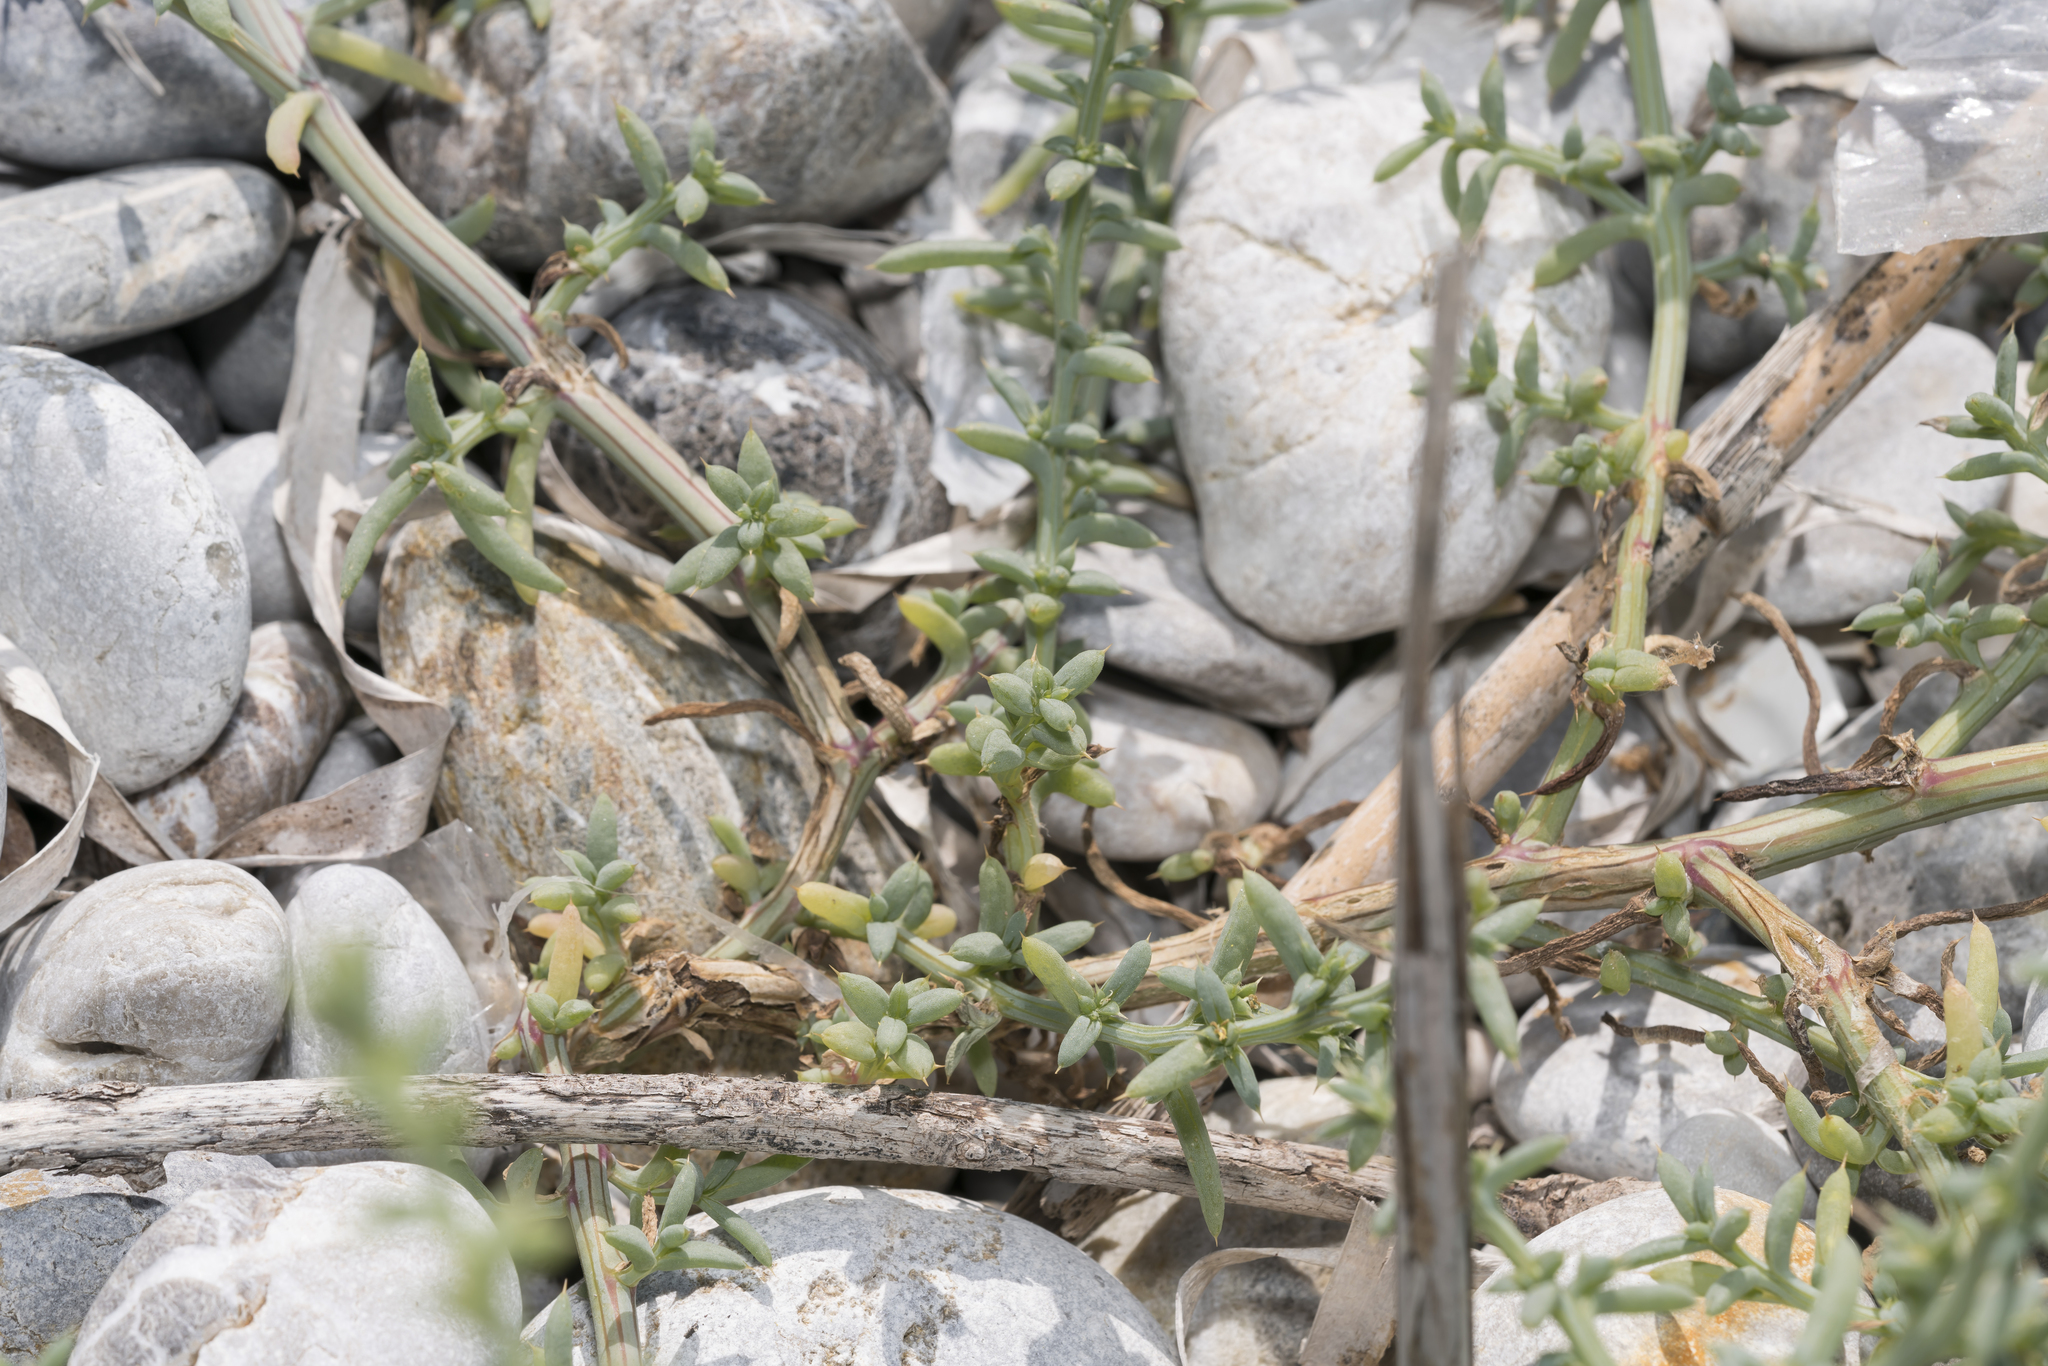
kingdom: Plantae
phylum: Tracheophyta
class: Magnoliopsida
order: Caryophyllales
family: Amaranthaceae
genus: Salsola
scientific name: Salsola squarrosa
